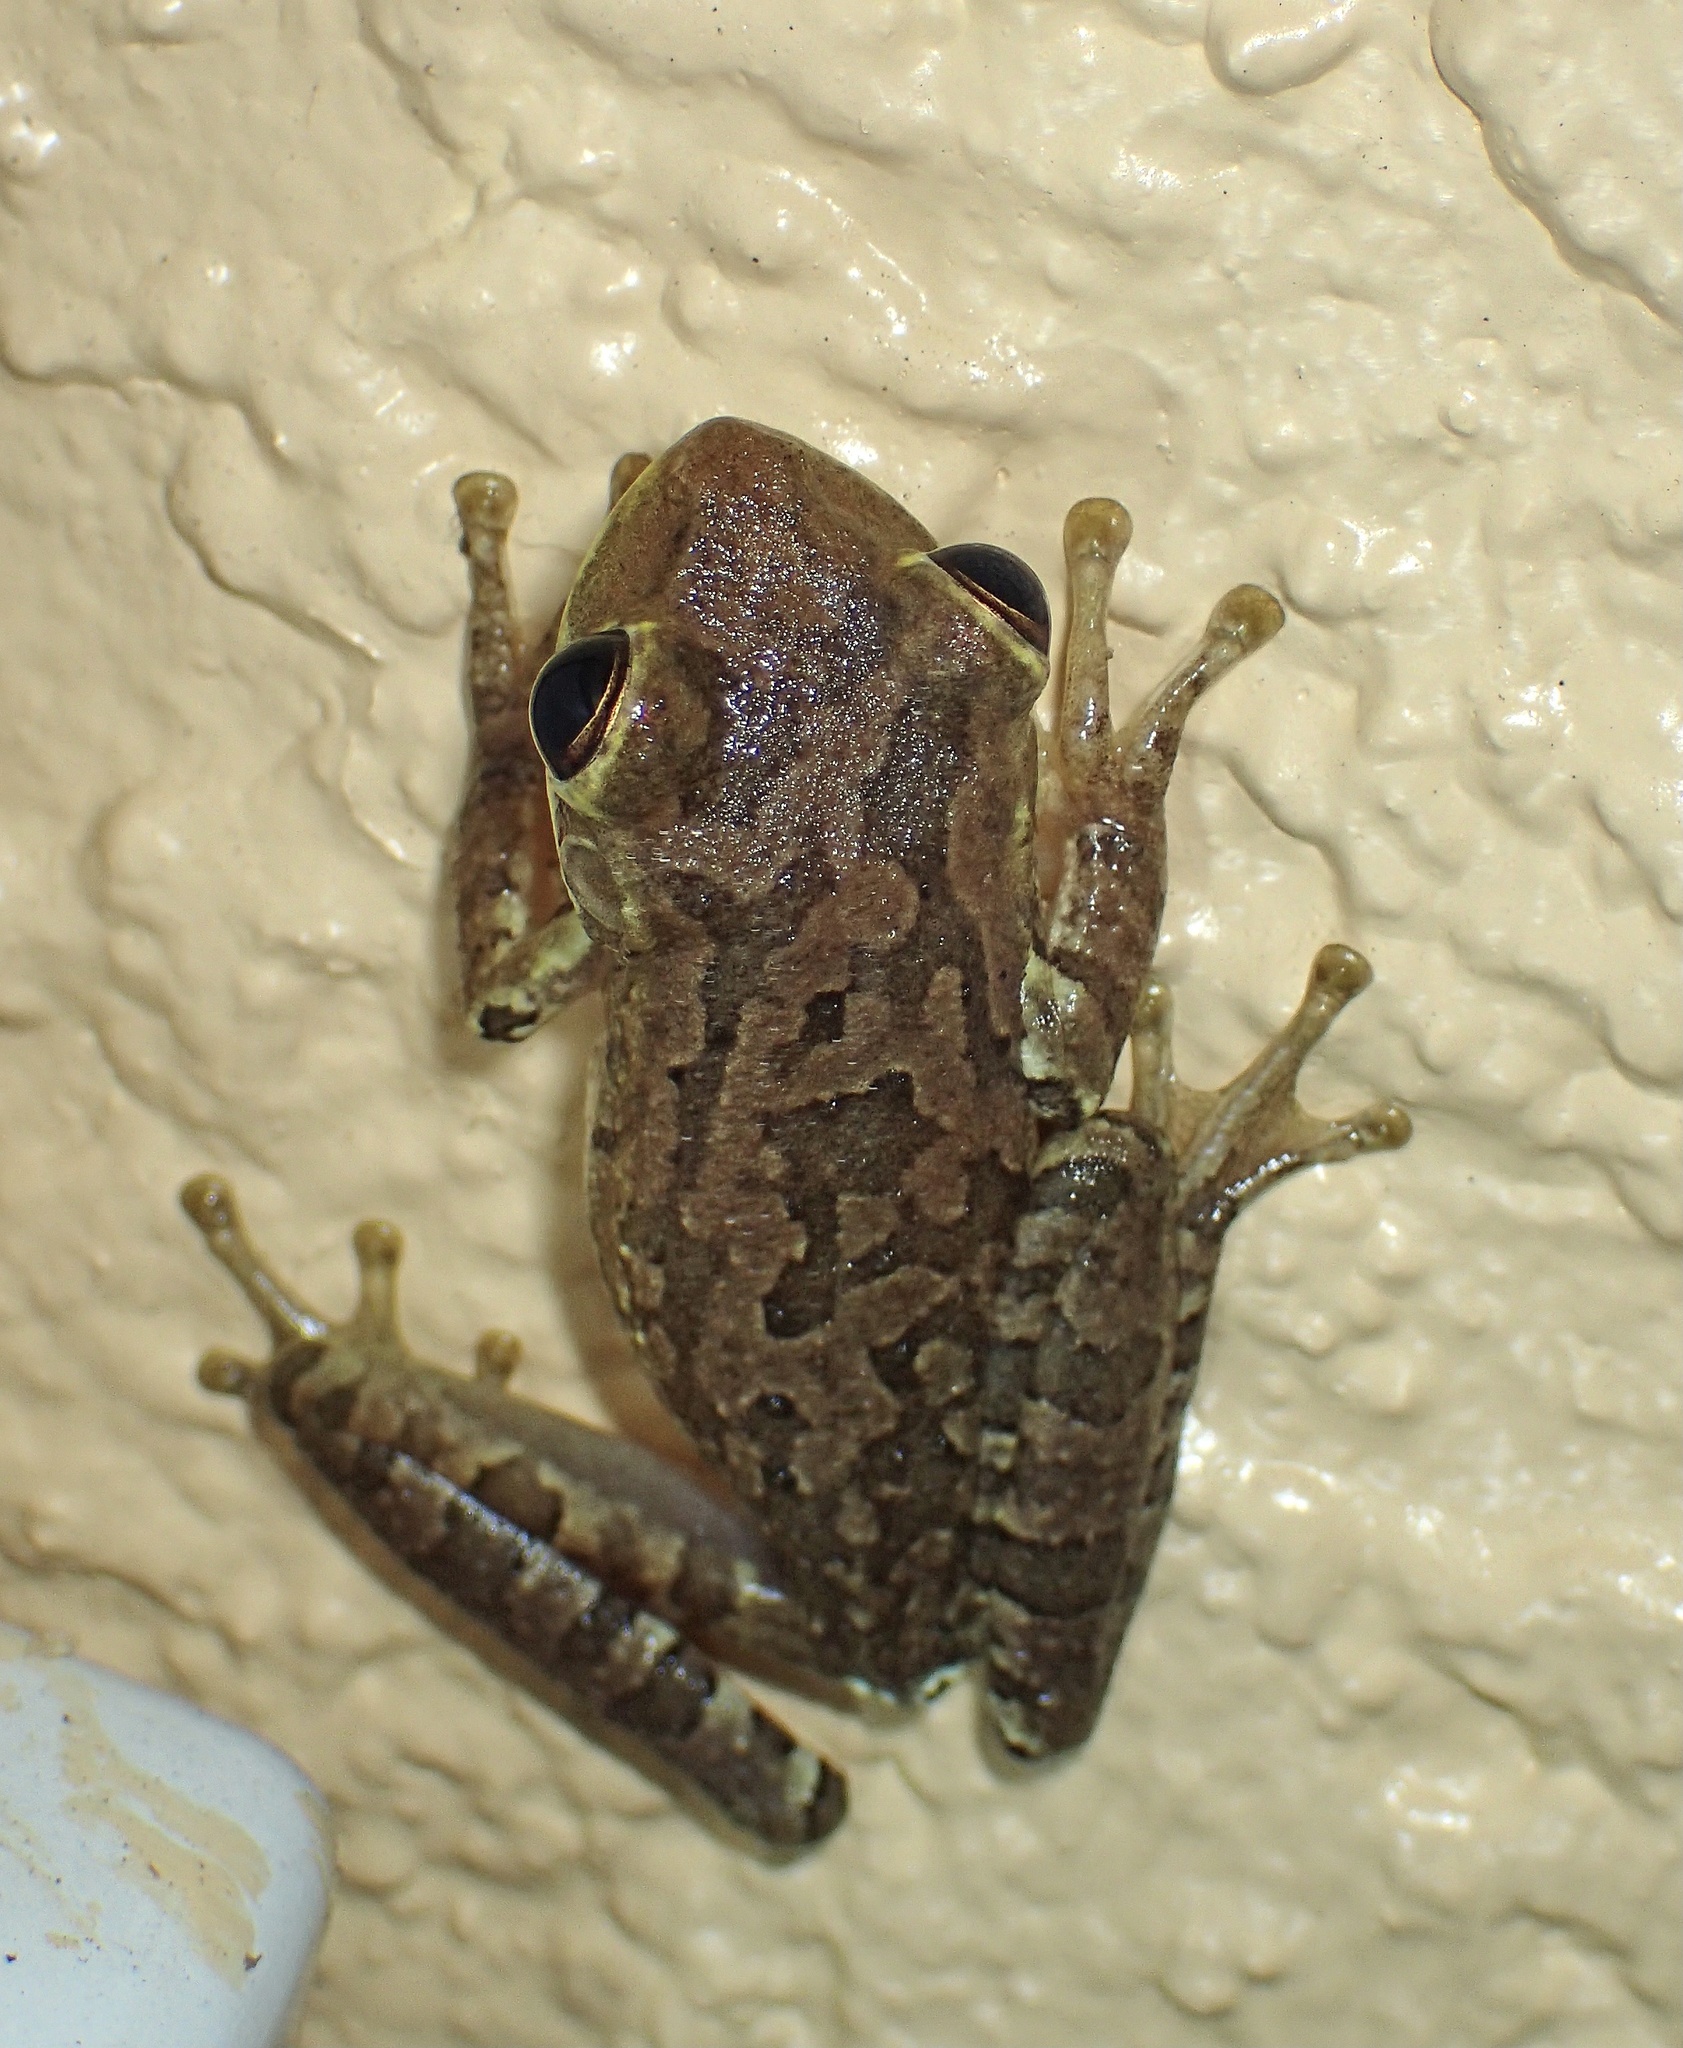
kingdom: Animalia
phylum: Chordata
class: Amphibia
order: Anura
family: Hylidae
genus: Osteopilus
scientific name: Osteopilus septentrionalis
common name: Cuban treefrog
